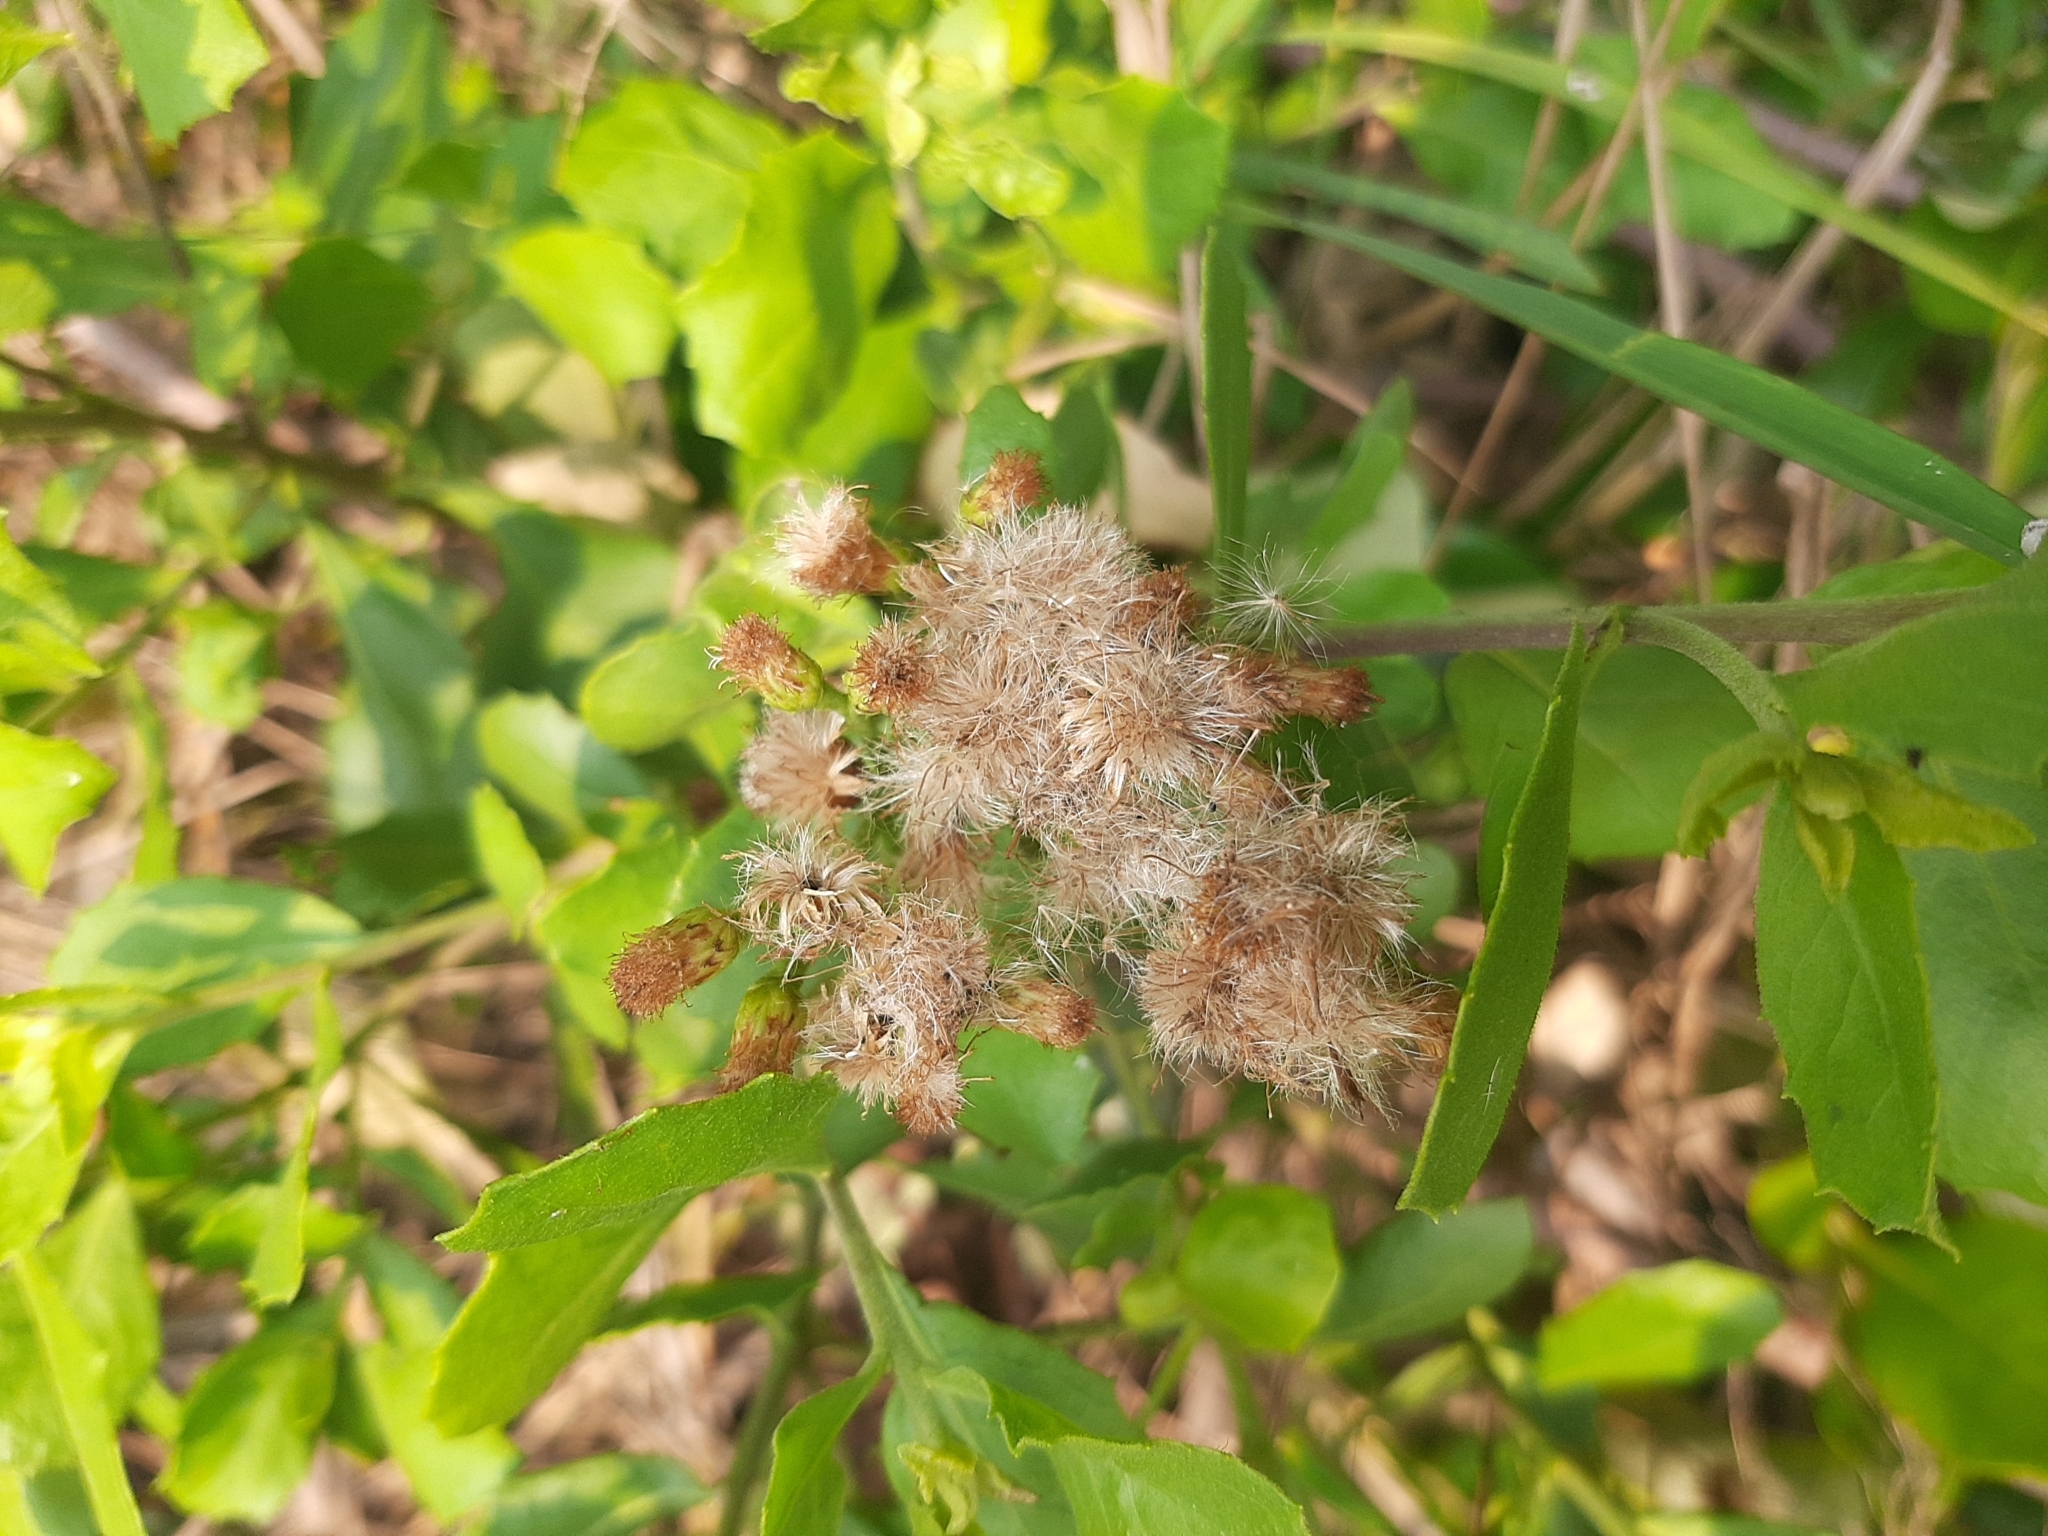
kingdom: Plantae
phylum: Tracheophyta
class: Magnoliopsida
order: Asterales
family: Asteraceae
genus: Pluchea
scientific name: Pluchea indica
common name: Indian fleabane
